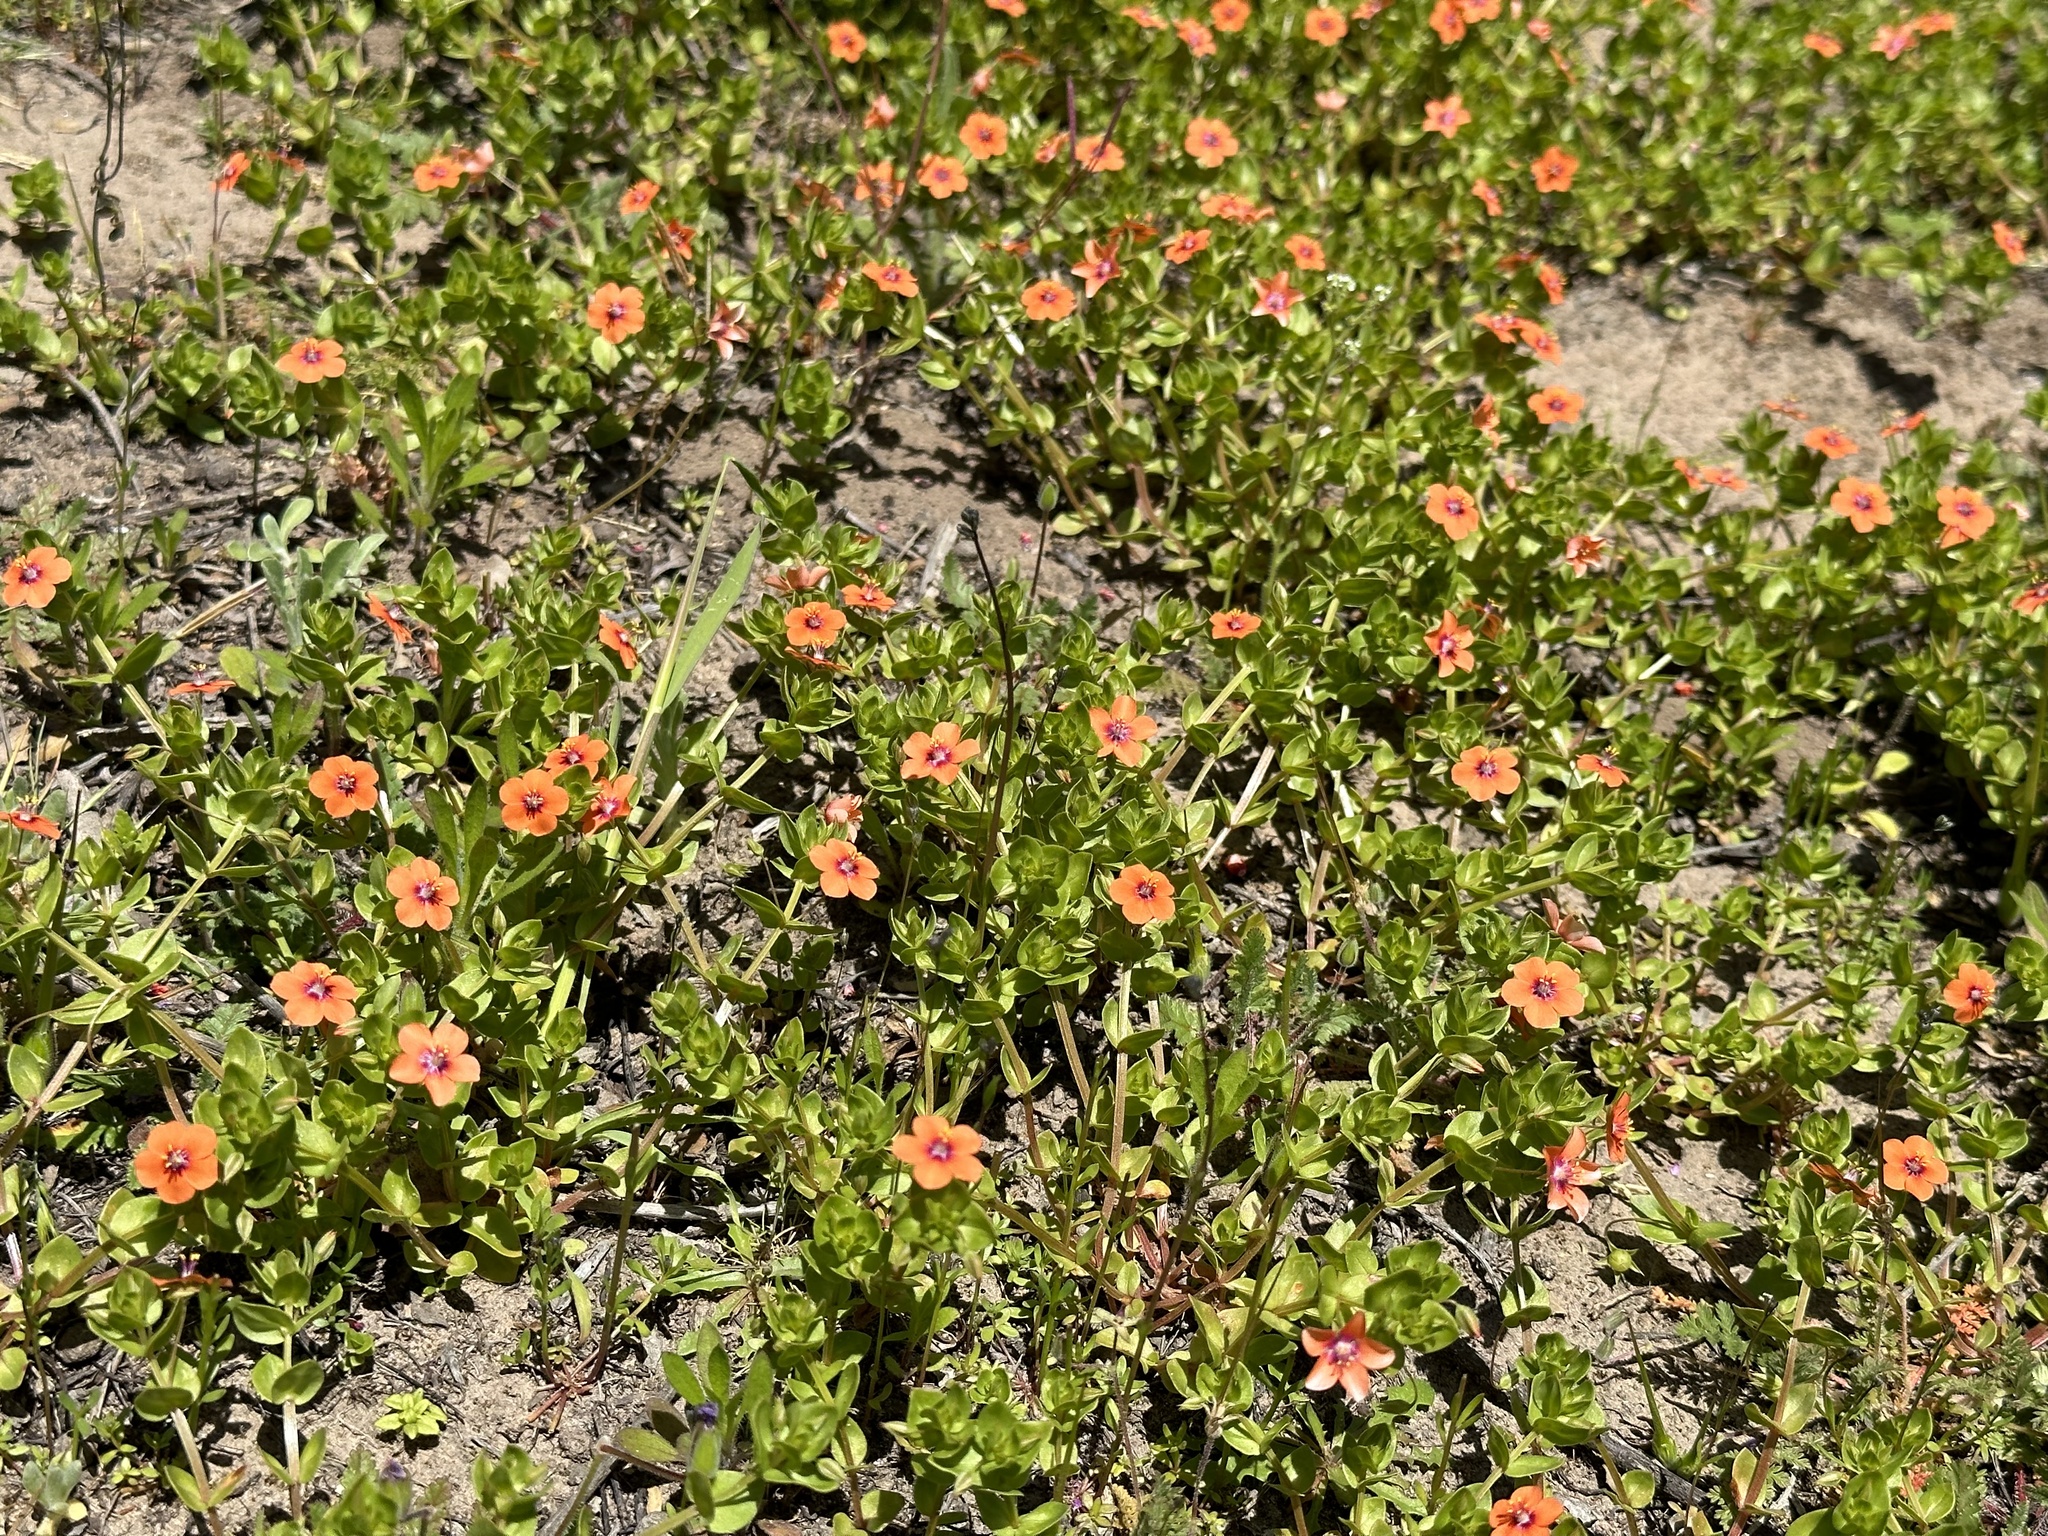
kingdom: Plantae
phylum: Tracheophyta
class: Magnoliopsida
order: Ericales
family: Primulaceae
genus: Lysimachia
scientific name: Lysimachia arvensis
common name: Scarlet pimpernel
